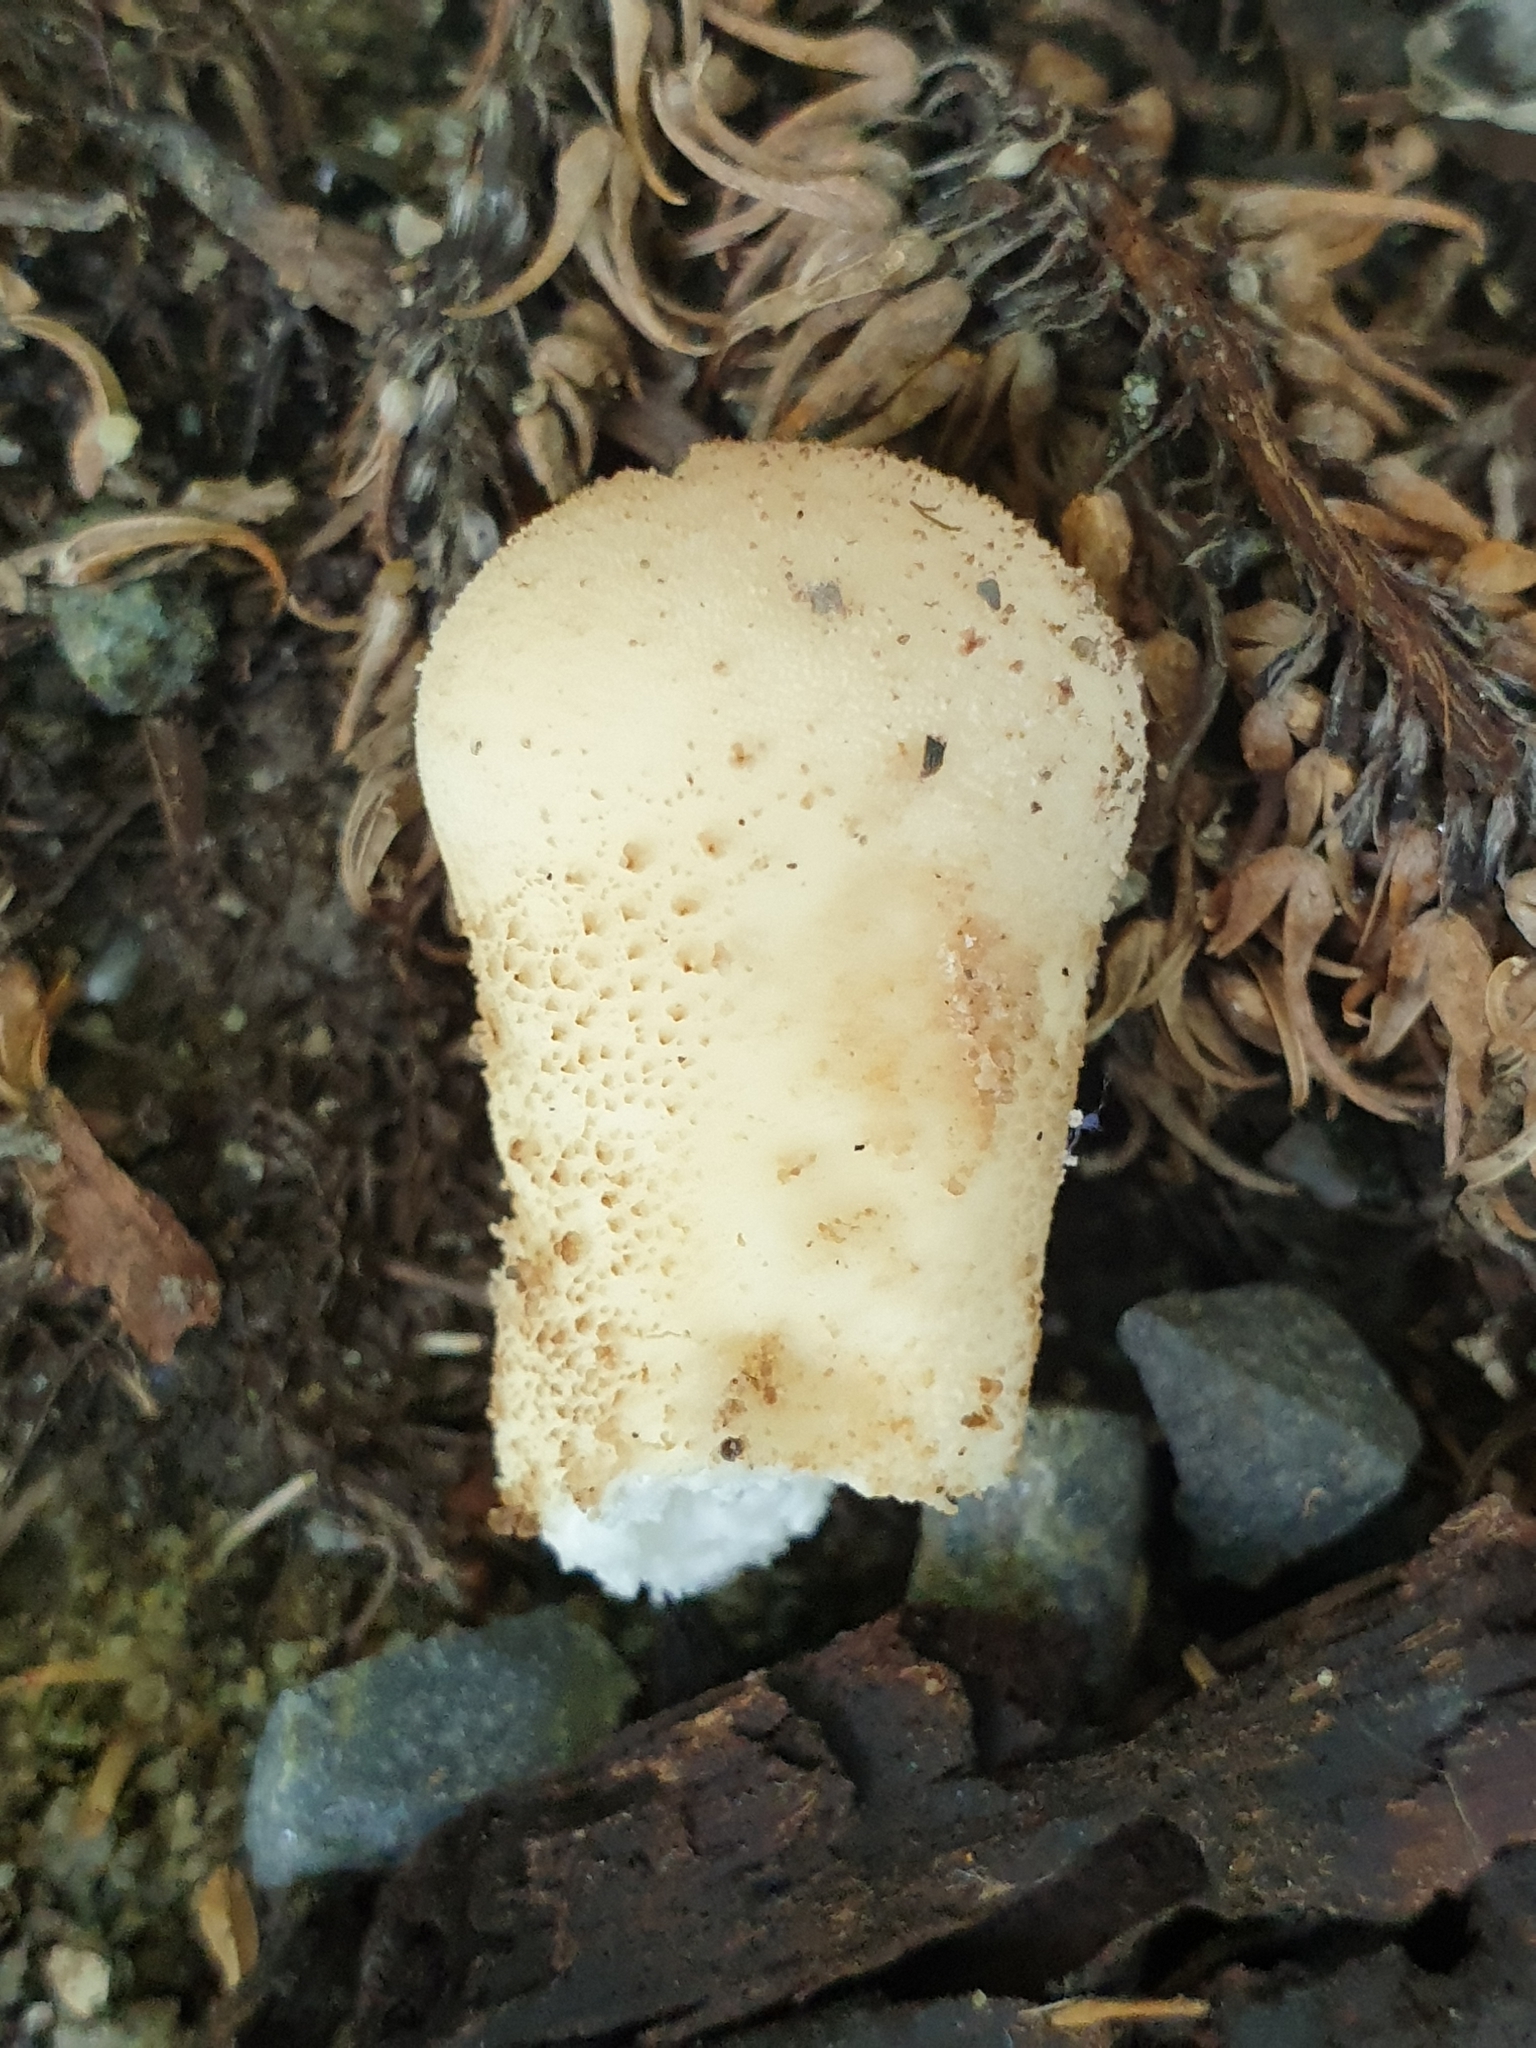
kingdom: Fungi
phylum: Basidiomycota
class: Agaricomycetes
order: Agaricales
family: Lycoperdaceae
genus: Apioperdon
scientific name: Apioperdon pyriforme
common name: Pear-shaped puffball
